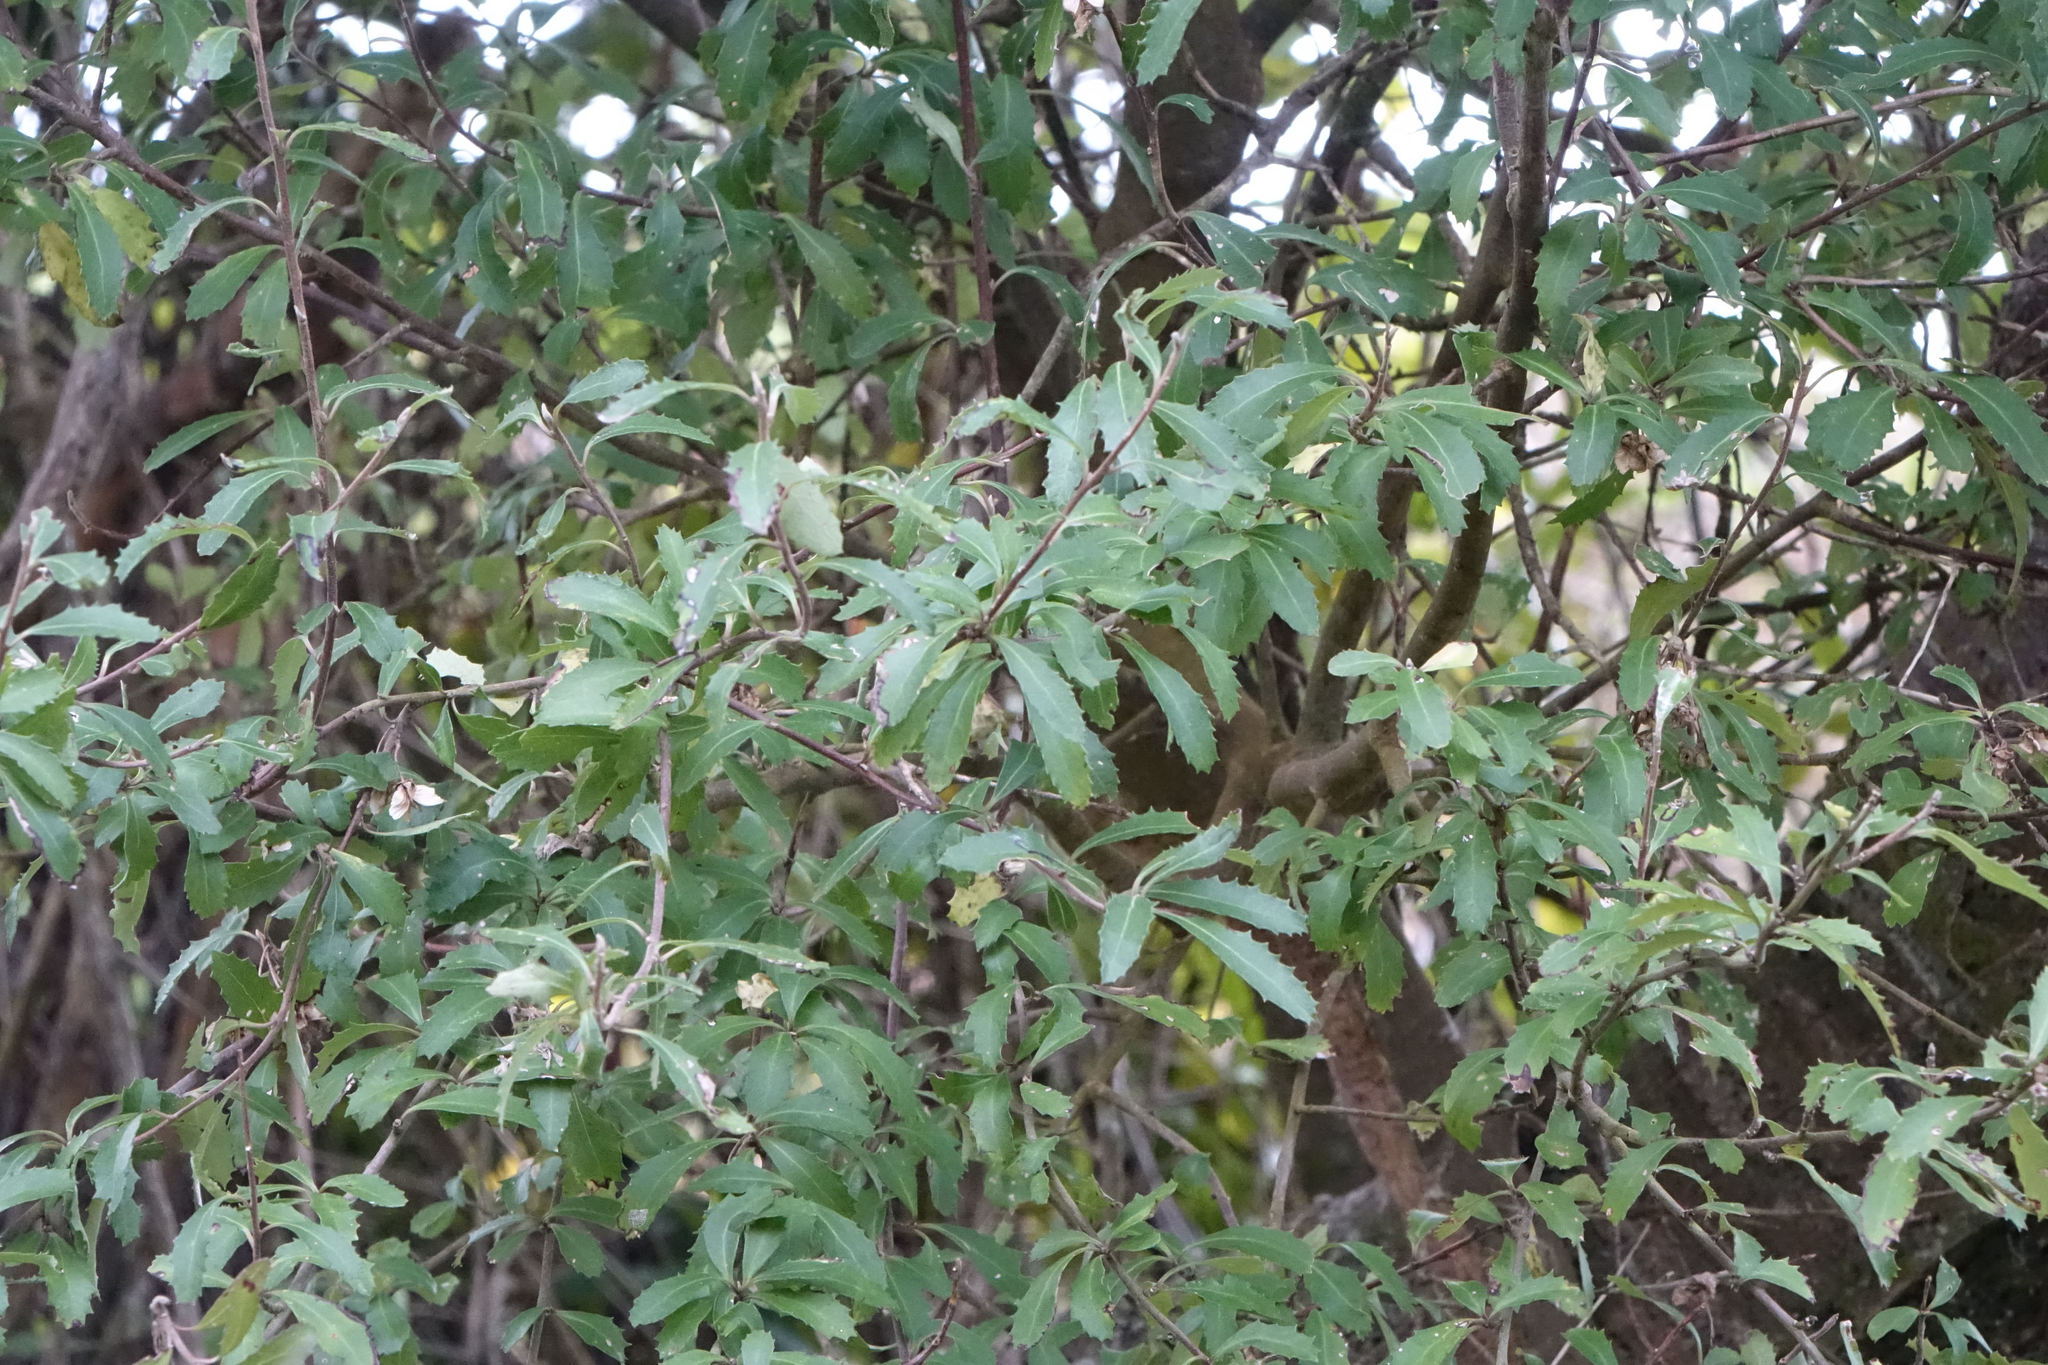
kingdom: Plantae
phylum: Tracheophyta
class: Magnoliopsida
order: Malvales
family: Malvaceae
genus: Hoheria
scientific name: Hoheria angustifolia
